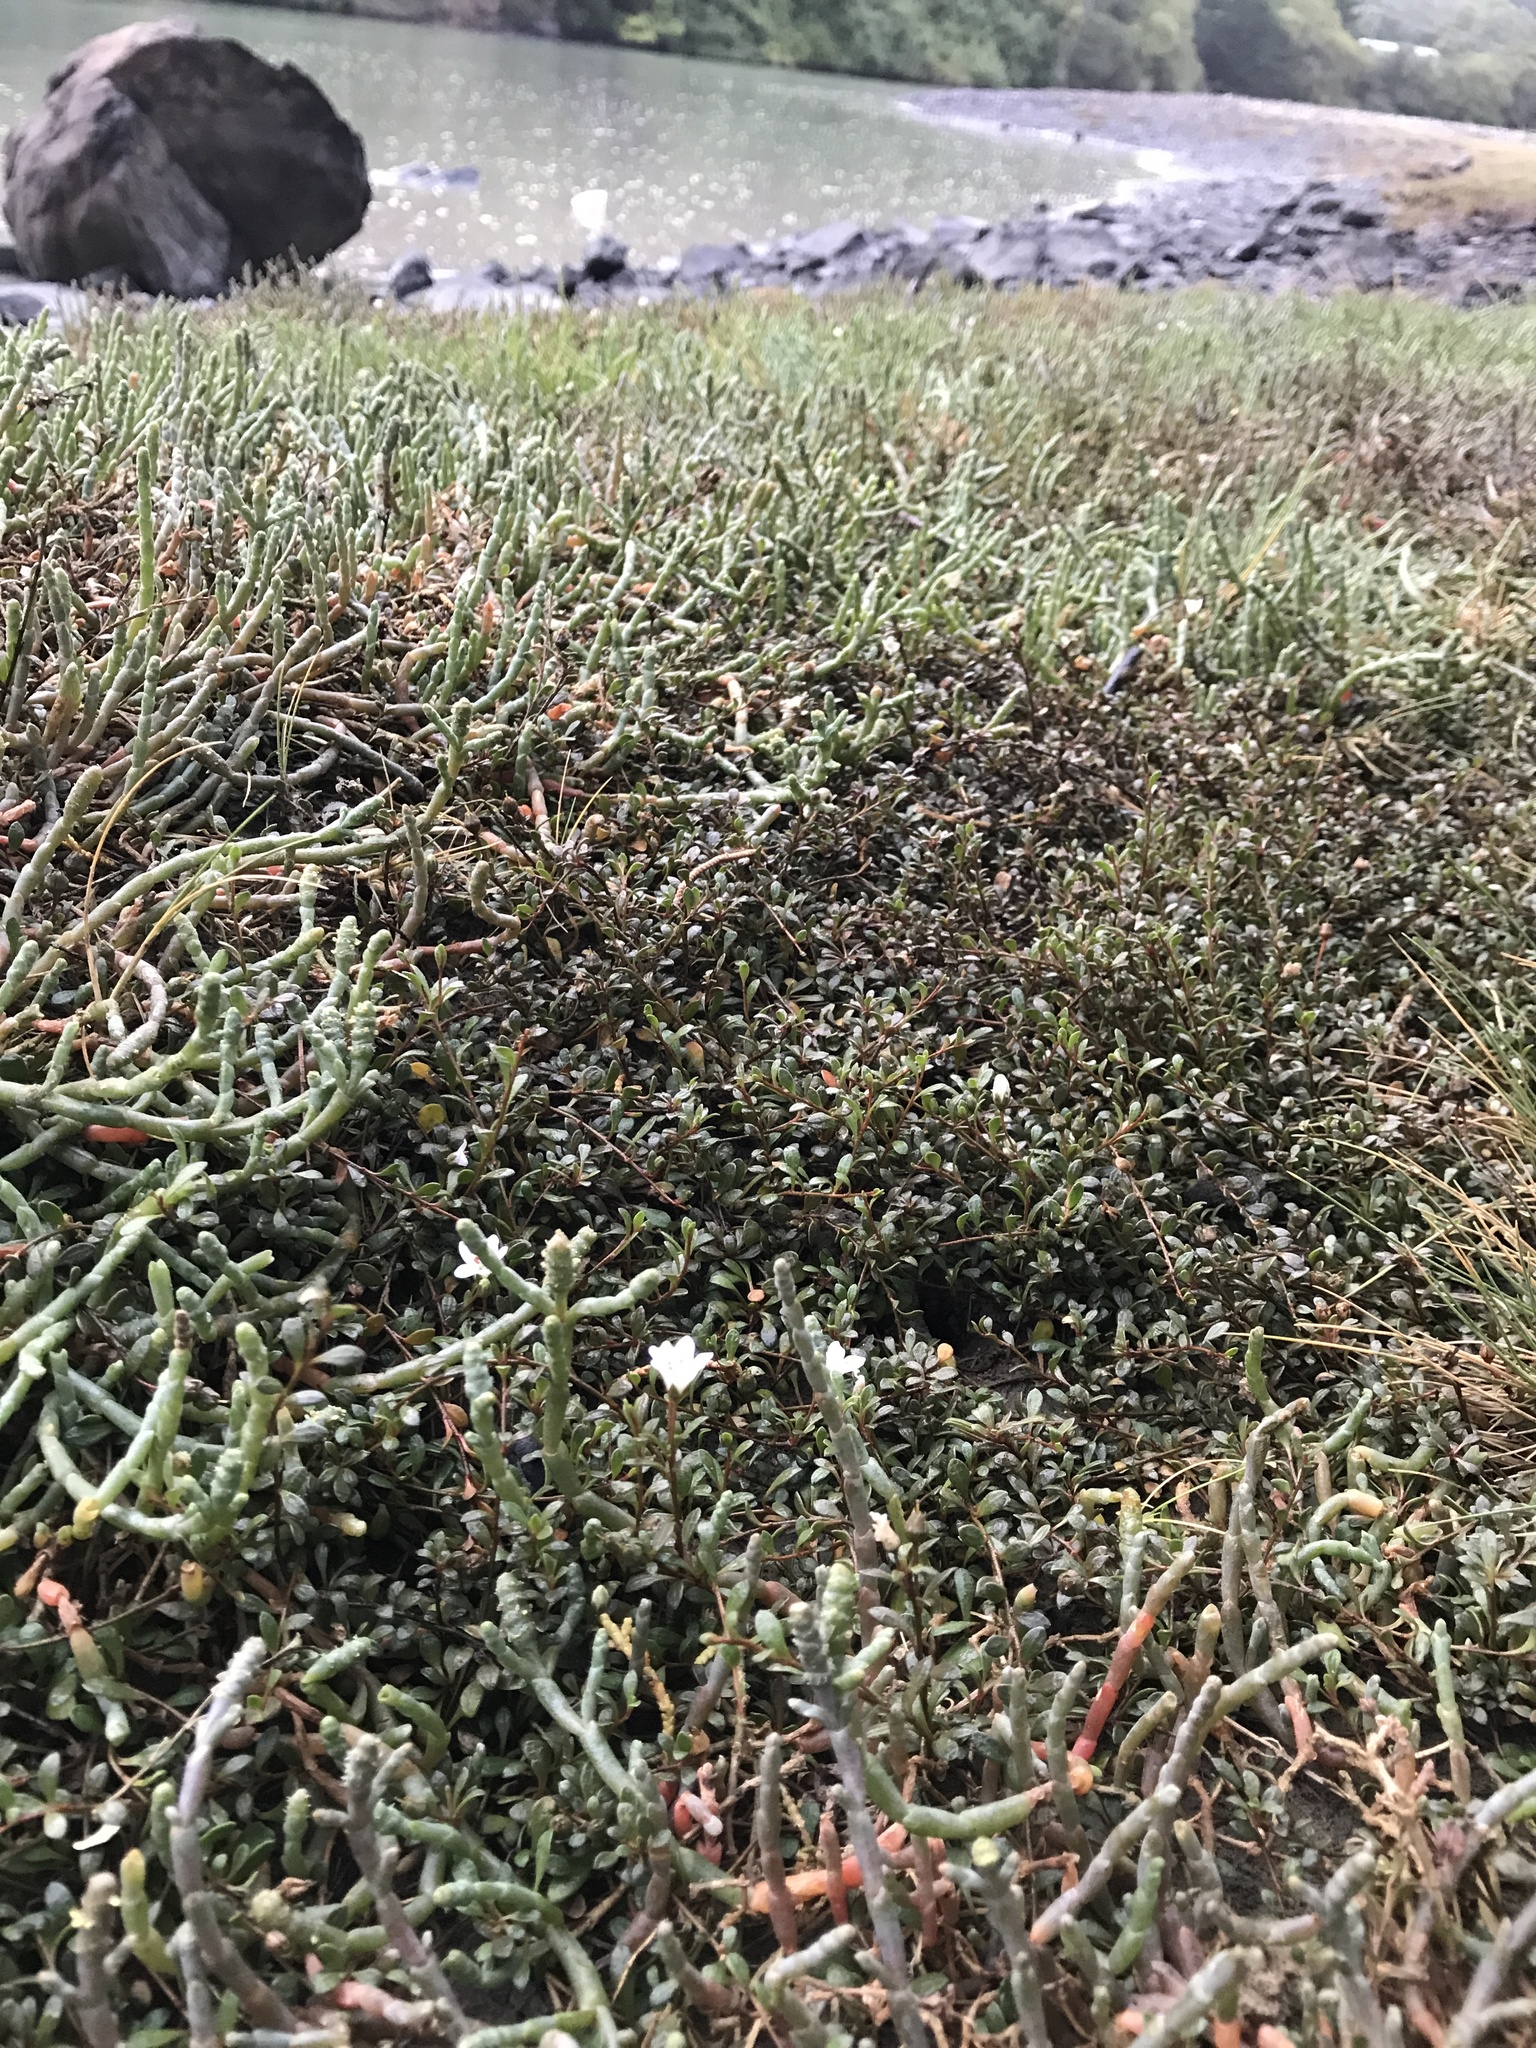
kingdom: Plantae
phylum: Tracheophyta
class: Magnoliopsida
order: Ericales
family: Primulaceae
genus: Samolus
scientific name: Samolus repens
